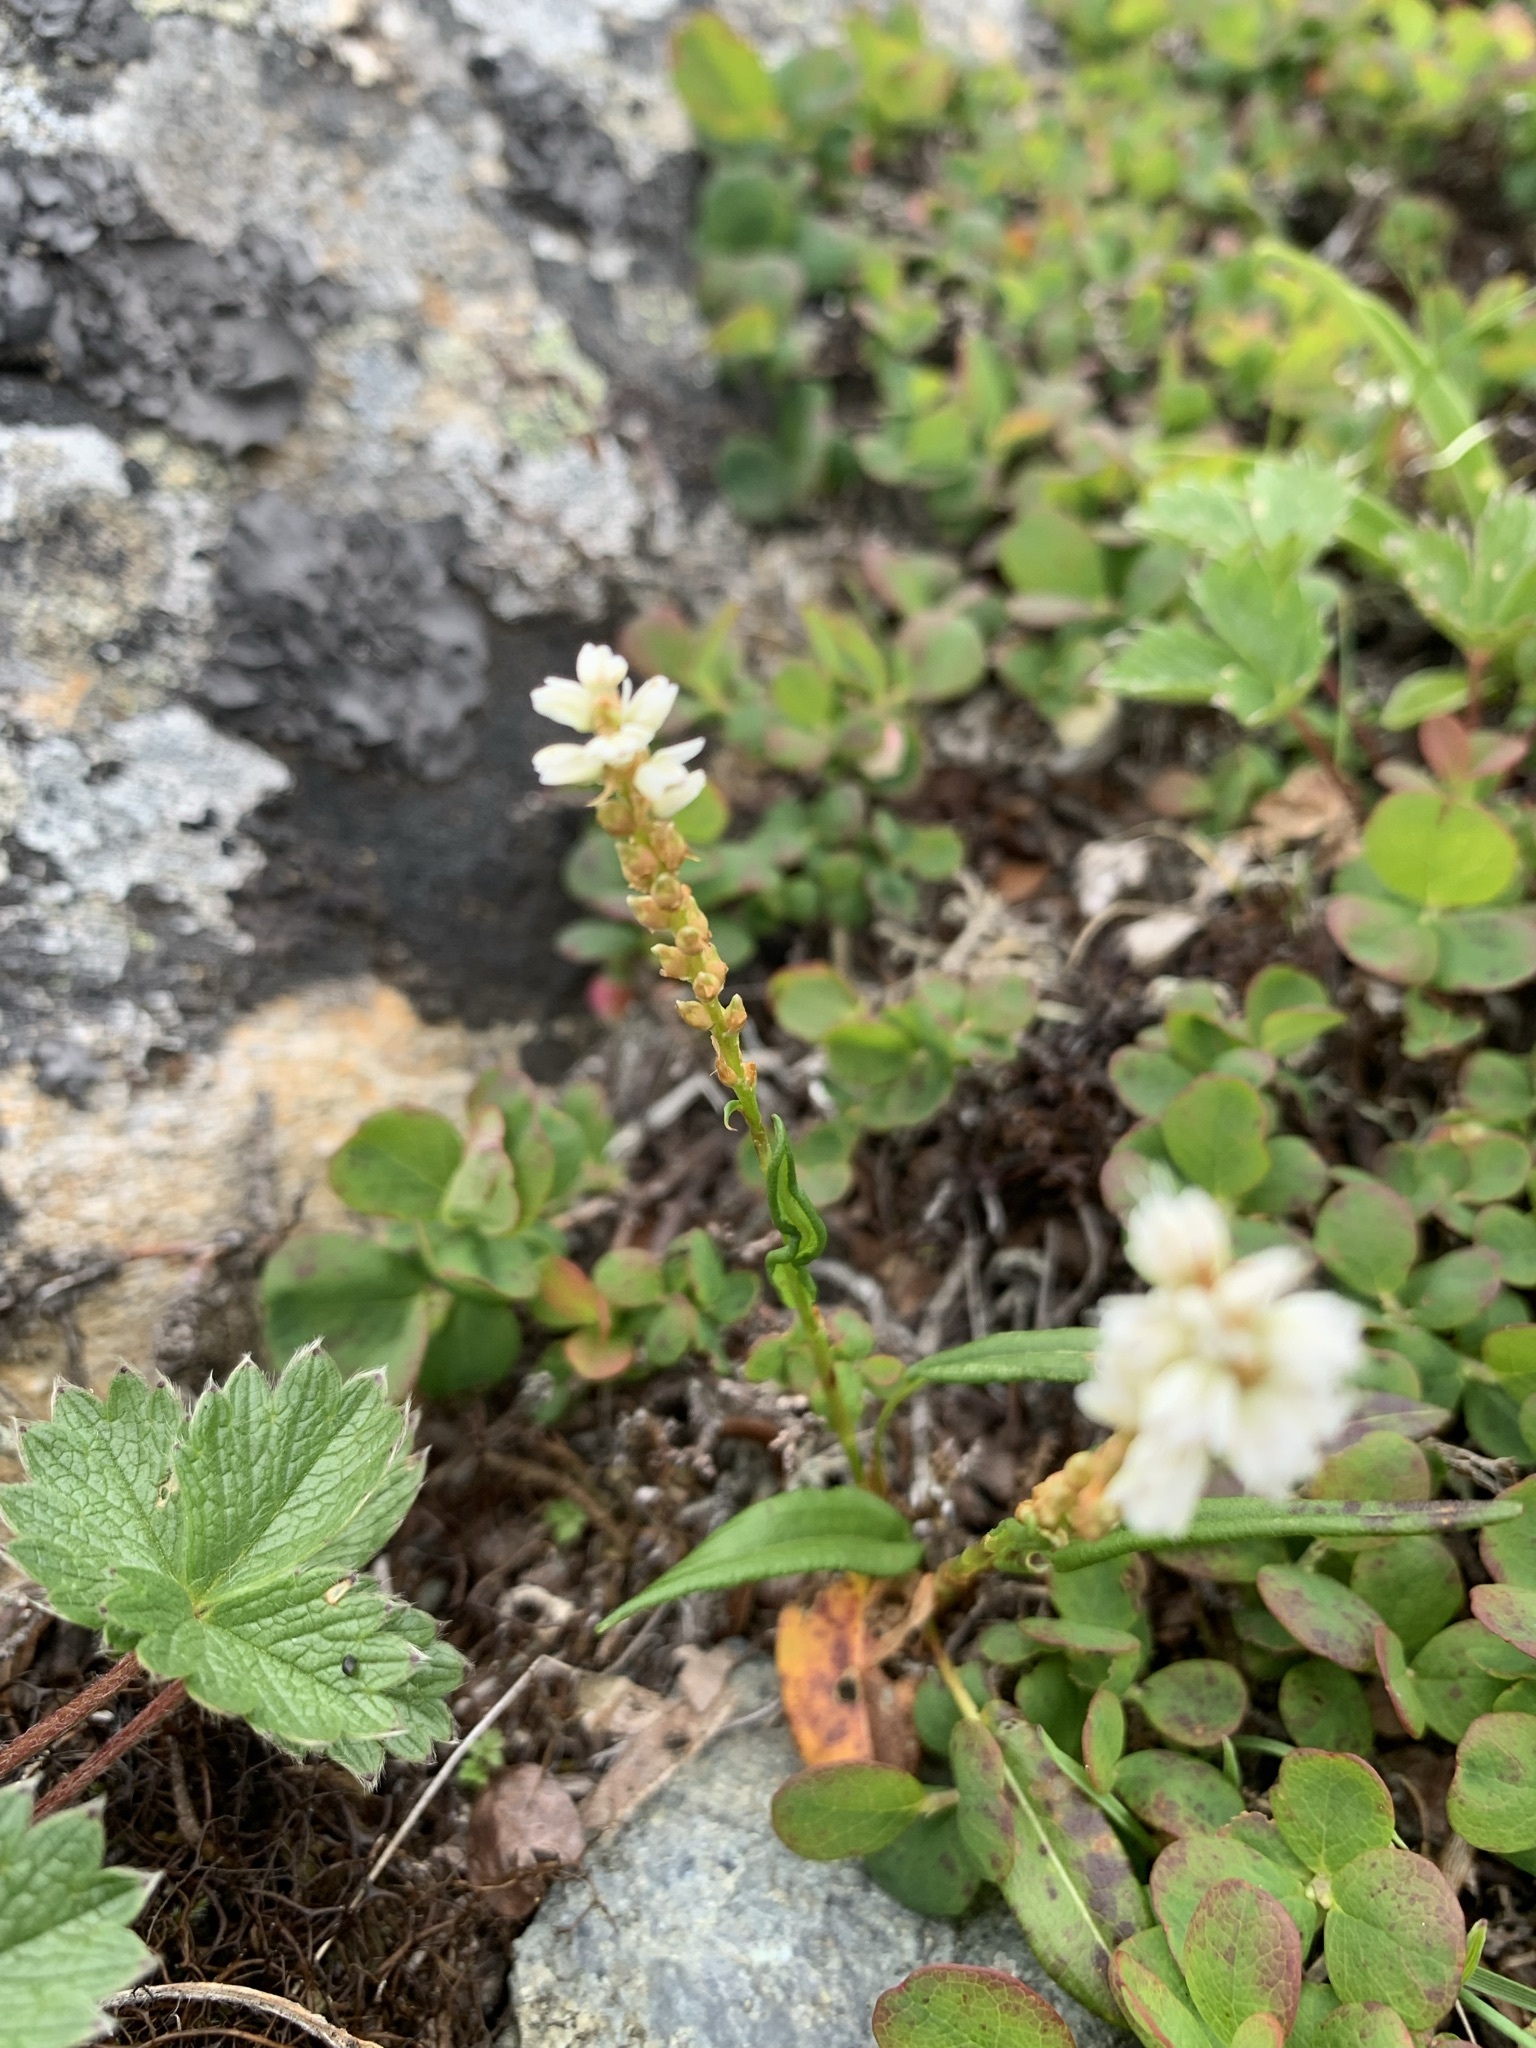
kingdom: Plantae
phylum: Tracheophyta
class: Magnoliopsida
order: Caryophyllales
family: Polygonaceae
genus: Bistorta
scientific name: Bistorta vivipara
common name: Alpine bistort
